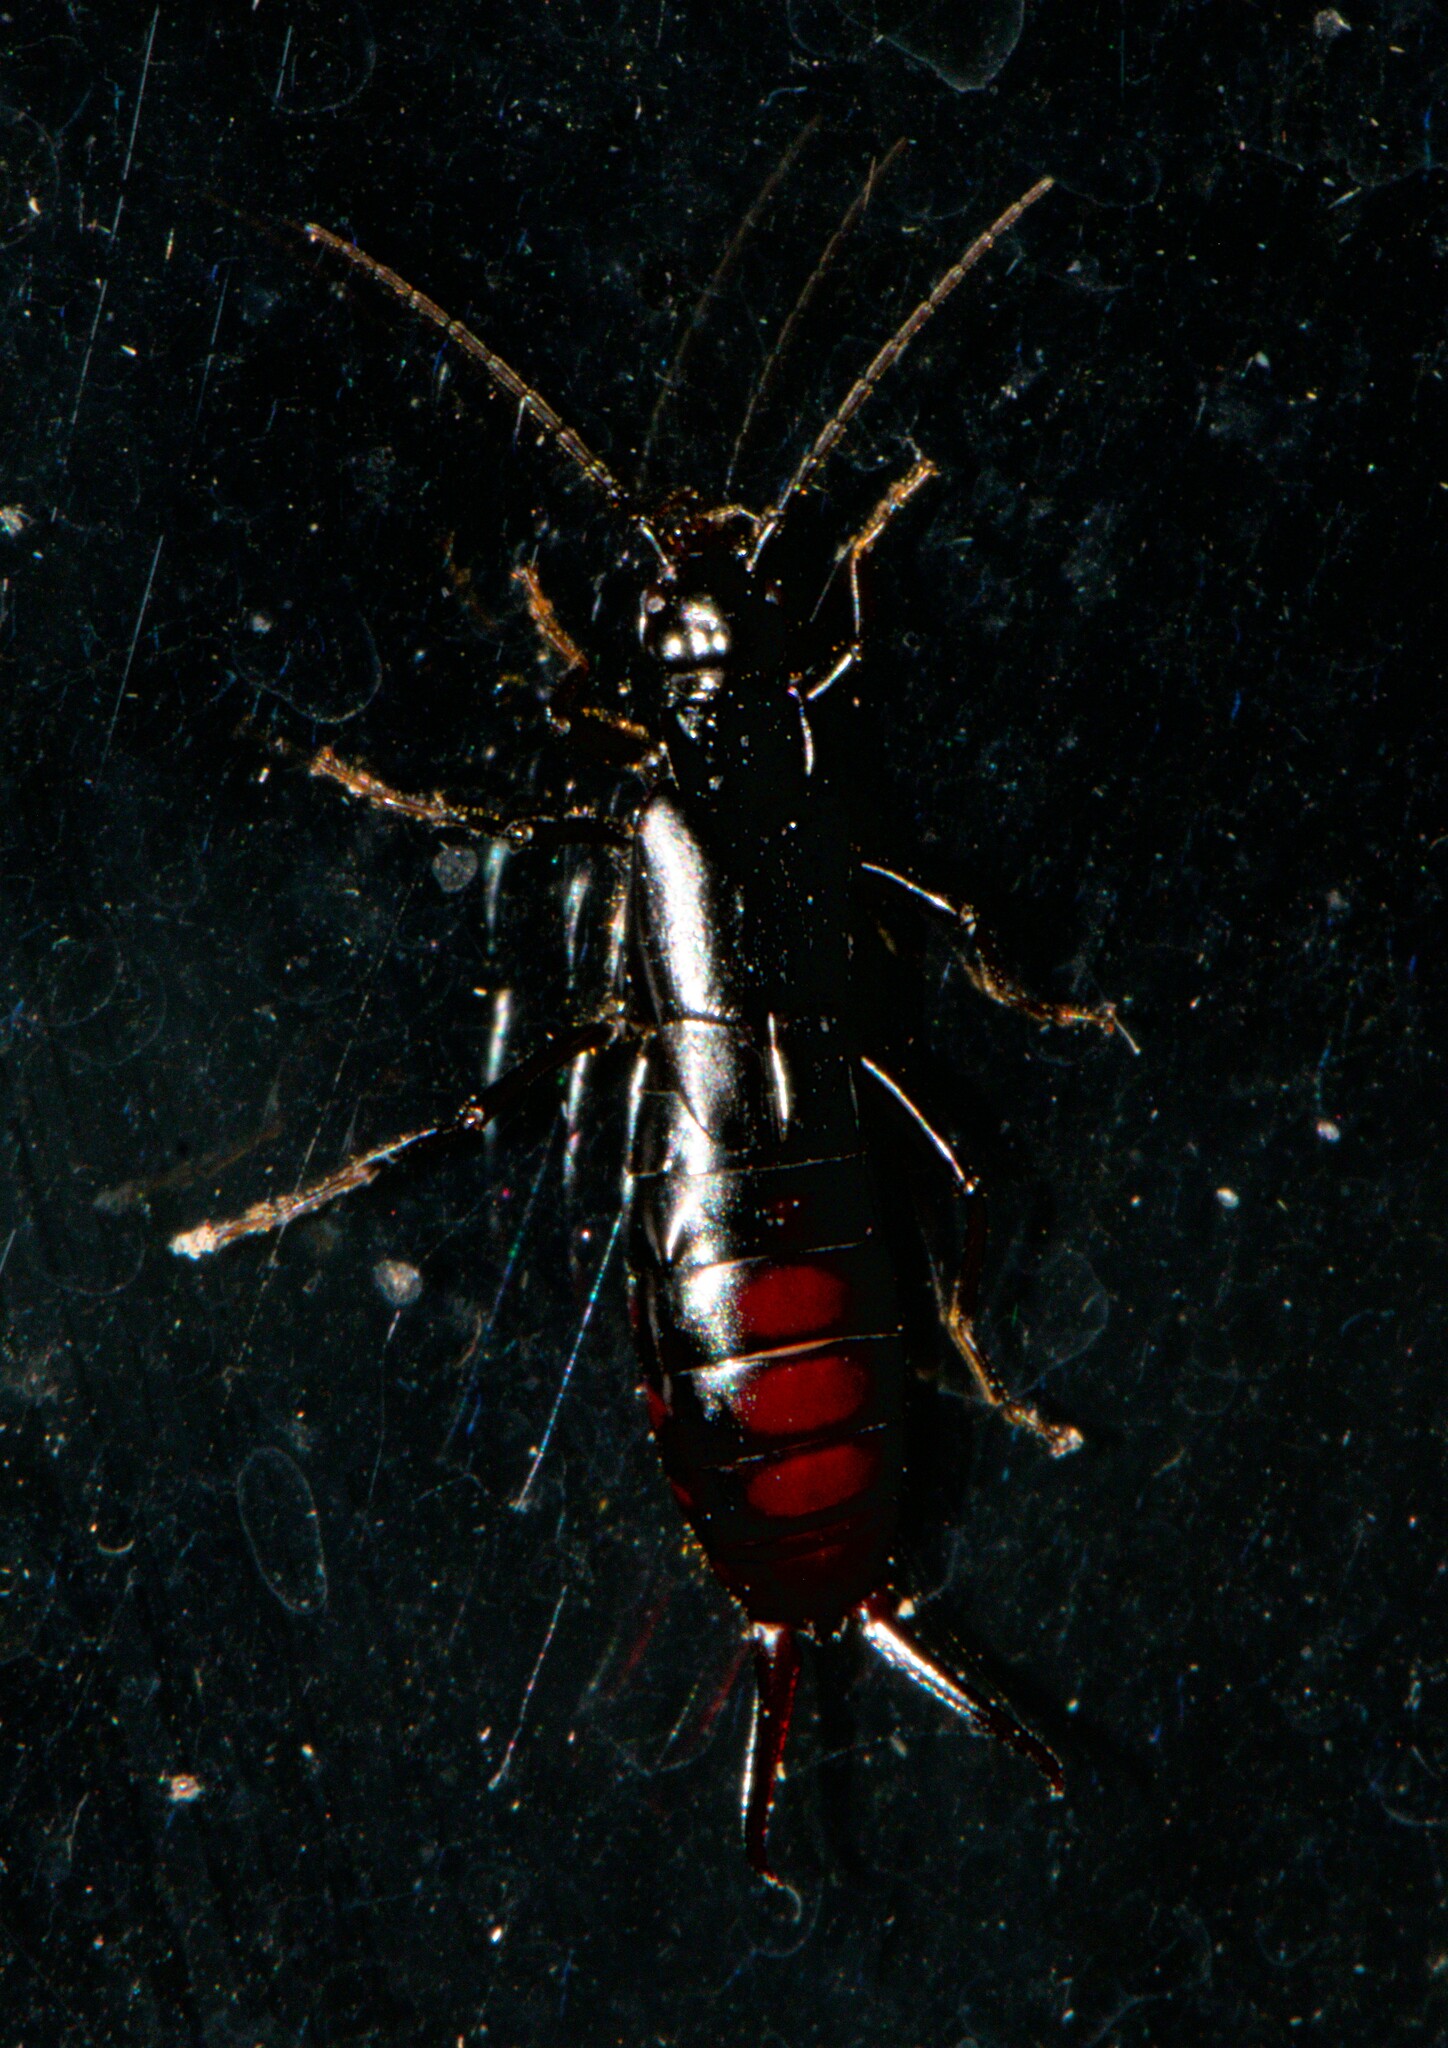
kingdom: Animalia
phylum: Arthropoda
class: Insecta
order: Dermaptera
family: Forficulidae
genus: Oreasiobia
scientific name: Oreasiobia stoliczkae
